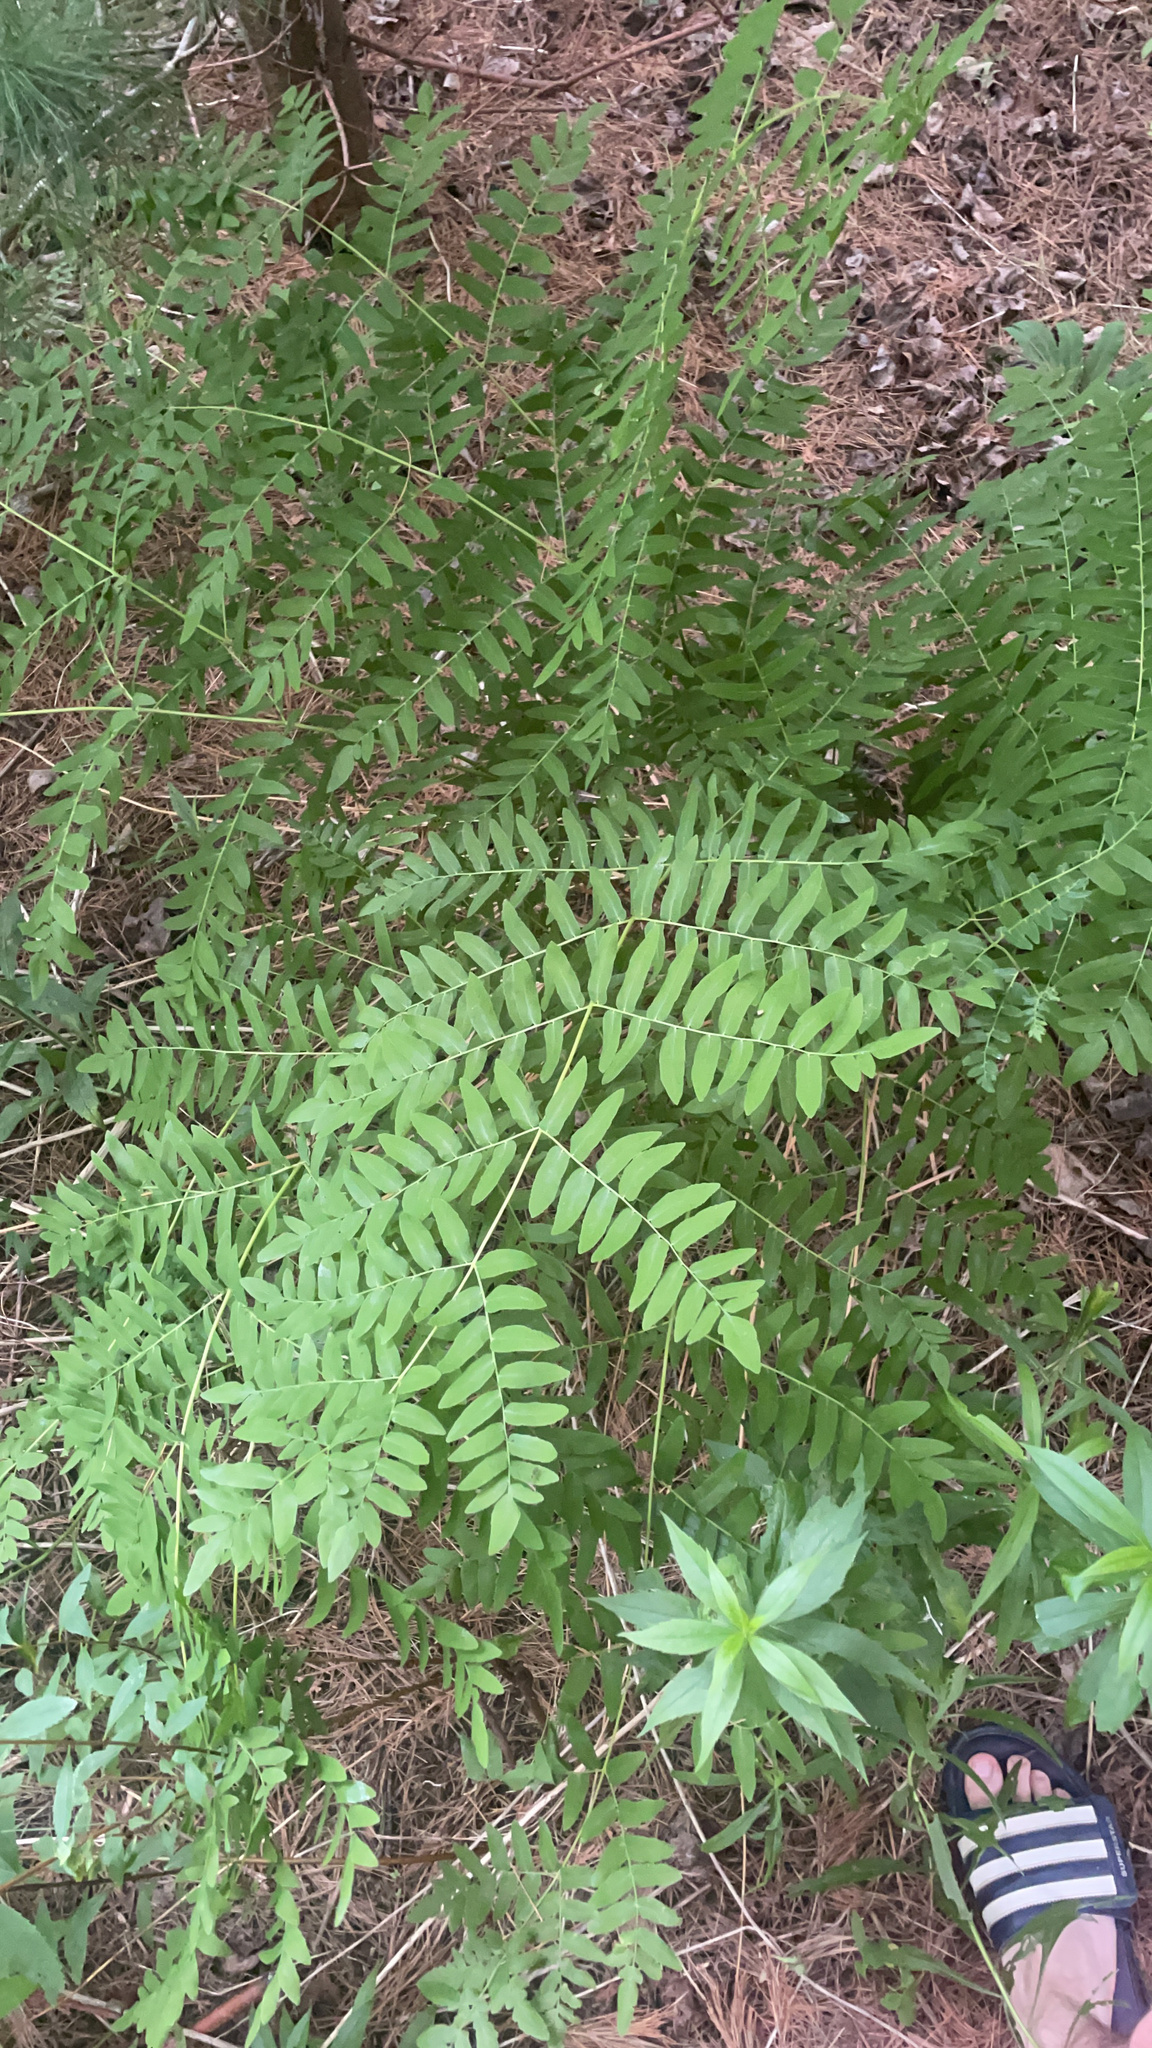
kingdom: Plantae
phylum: Tracheophyta
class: Polypodiopsida
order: Osmundales
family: Osmundaceae
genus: Osmunda
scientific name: Osmunda spectabilis
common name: American royal fern
